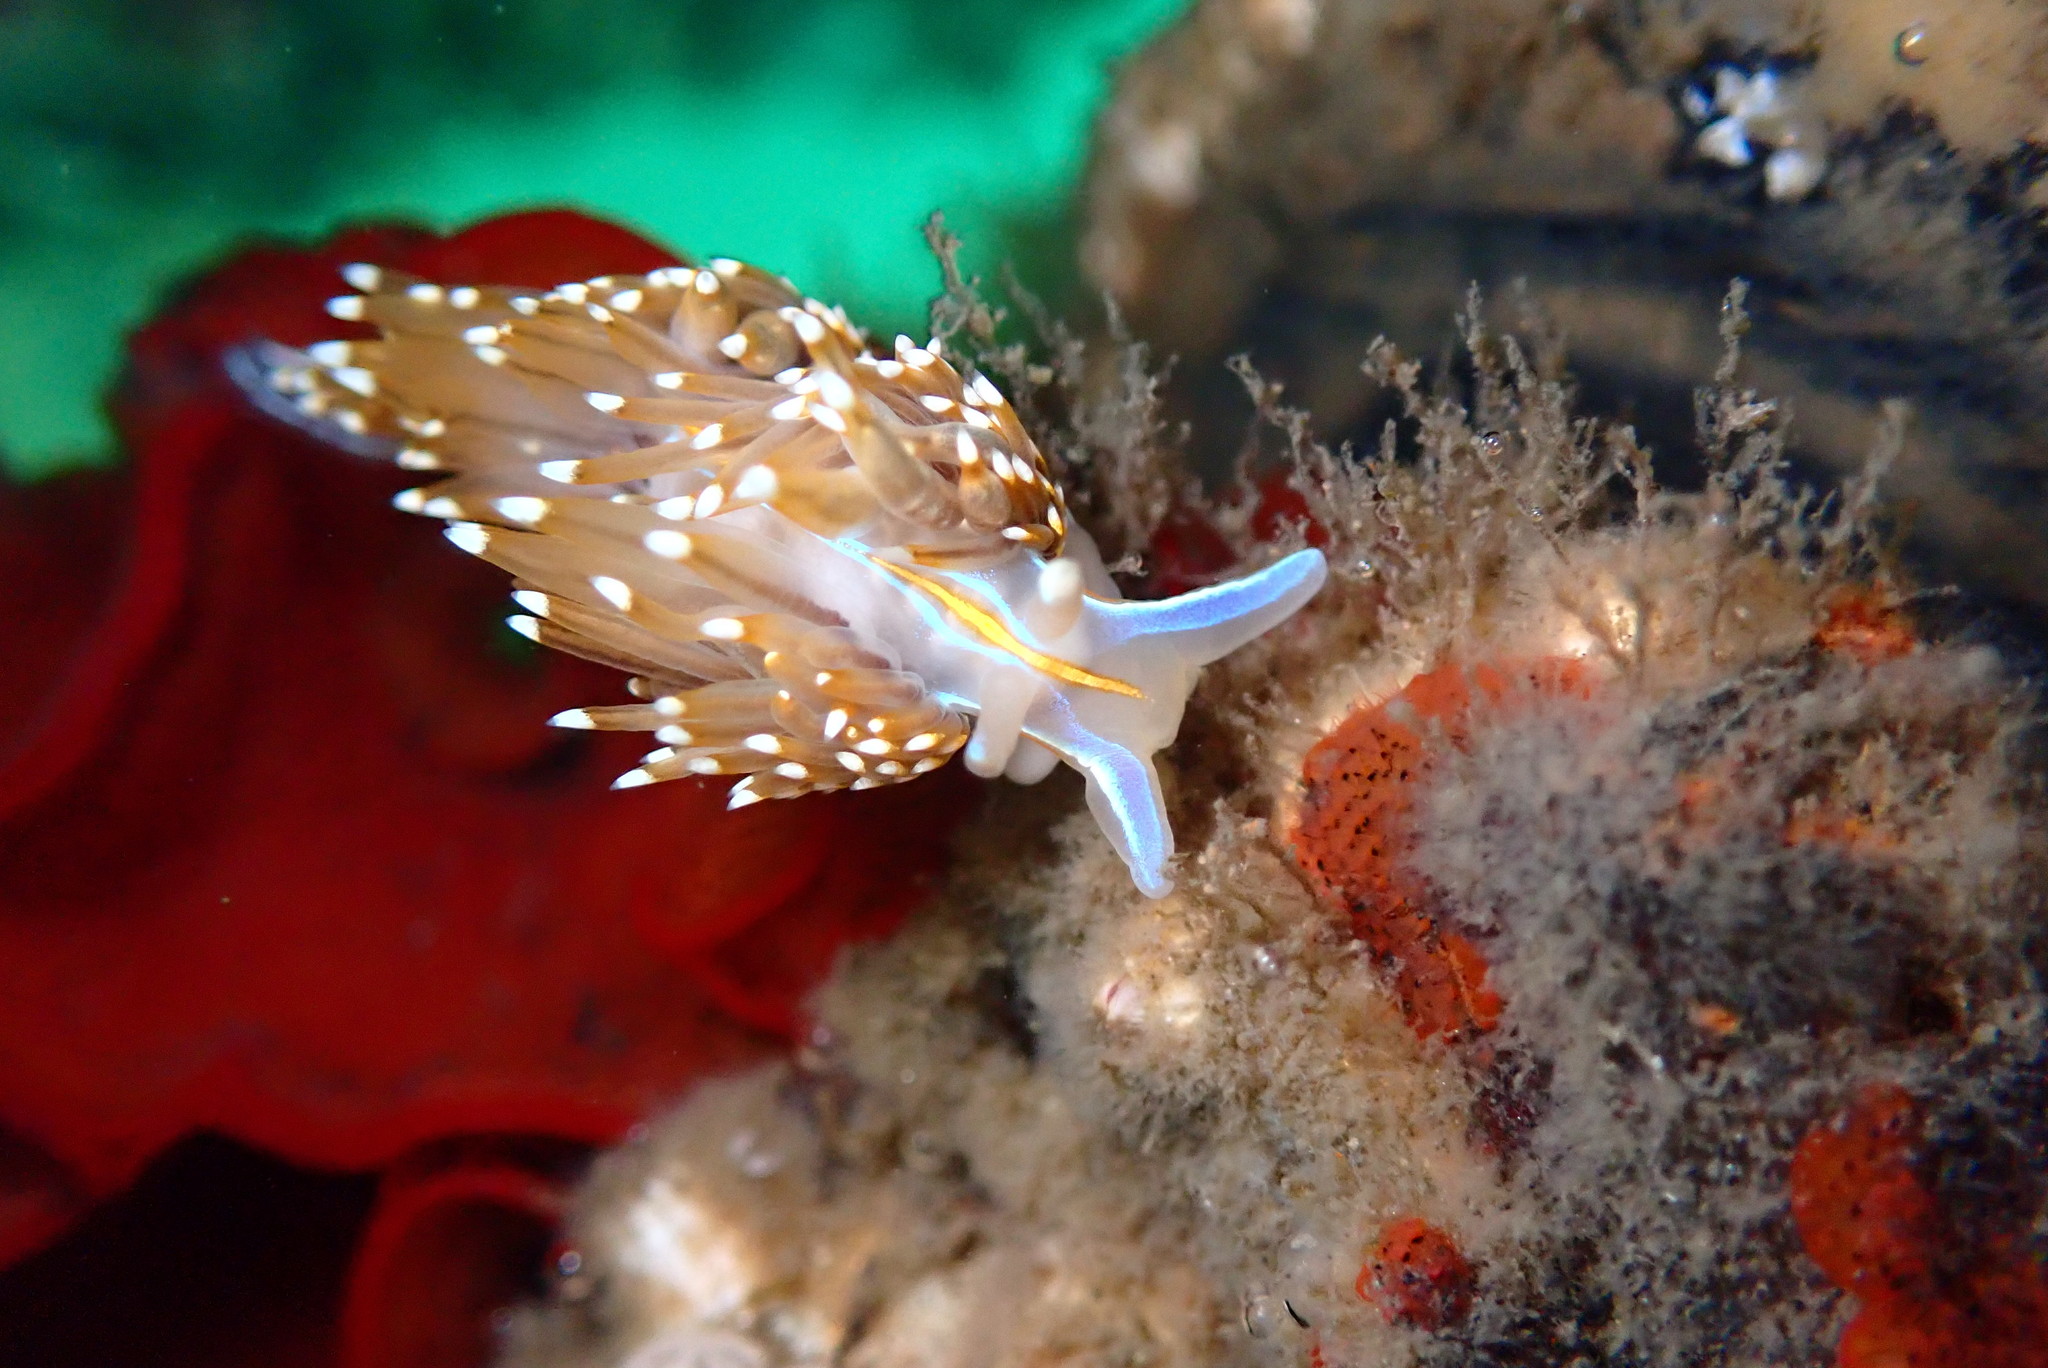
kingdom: Animalia
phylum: Mollusca
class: Gastropoda
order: Nudibranchia
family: Myrrhinidae
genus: Hermissenda
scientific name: Hermissenda opalescens
